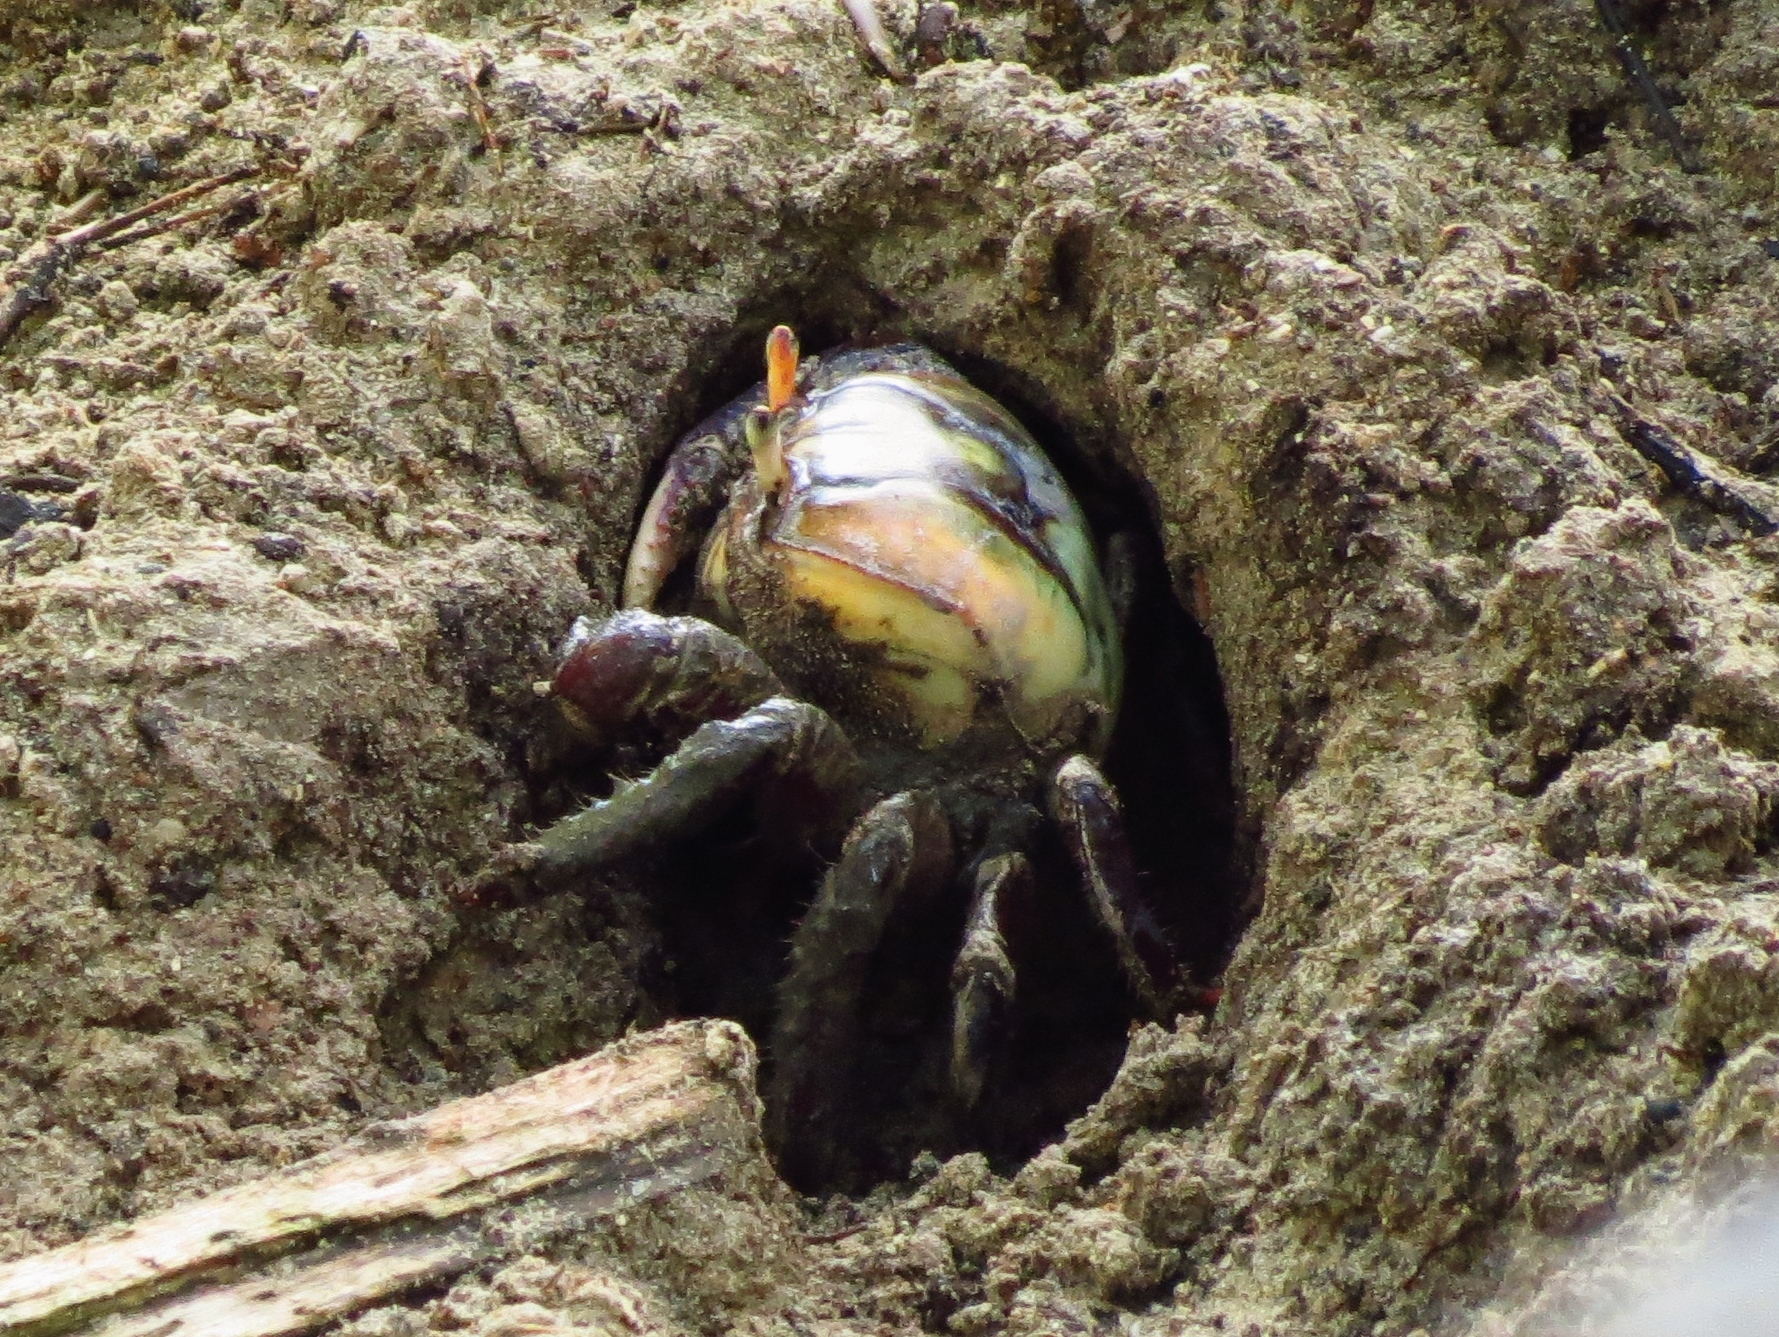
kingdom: Animalia
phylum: Arthropoda
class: Malacostraca
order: Decapoda
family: Ocypodidae
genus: Ucides
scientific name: Ucides cordatus
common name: Swamp ghost crab
